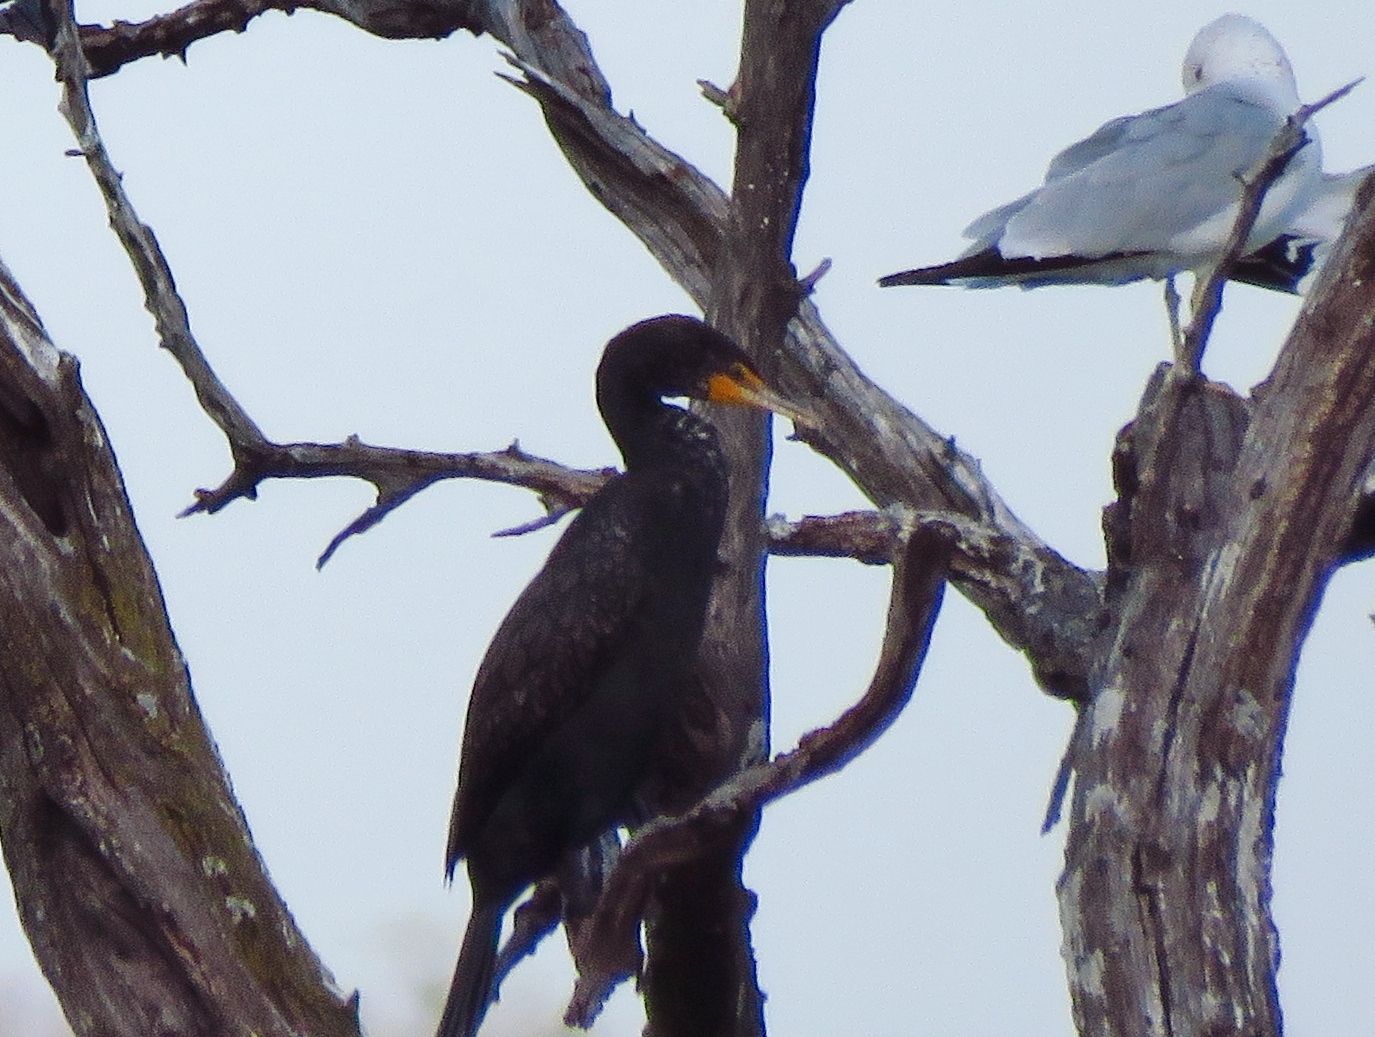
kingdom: Animalia
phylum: Chordata
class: Aves
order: Suliformes
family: Phalacrocoracidae
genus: Phalacrocorax
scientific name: Phalacrocorax auritus
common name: Double-crested cormorant
